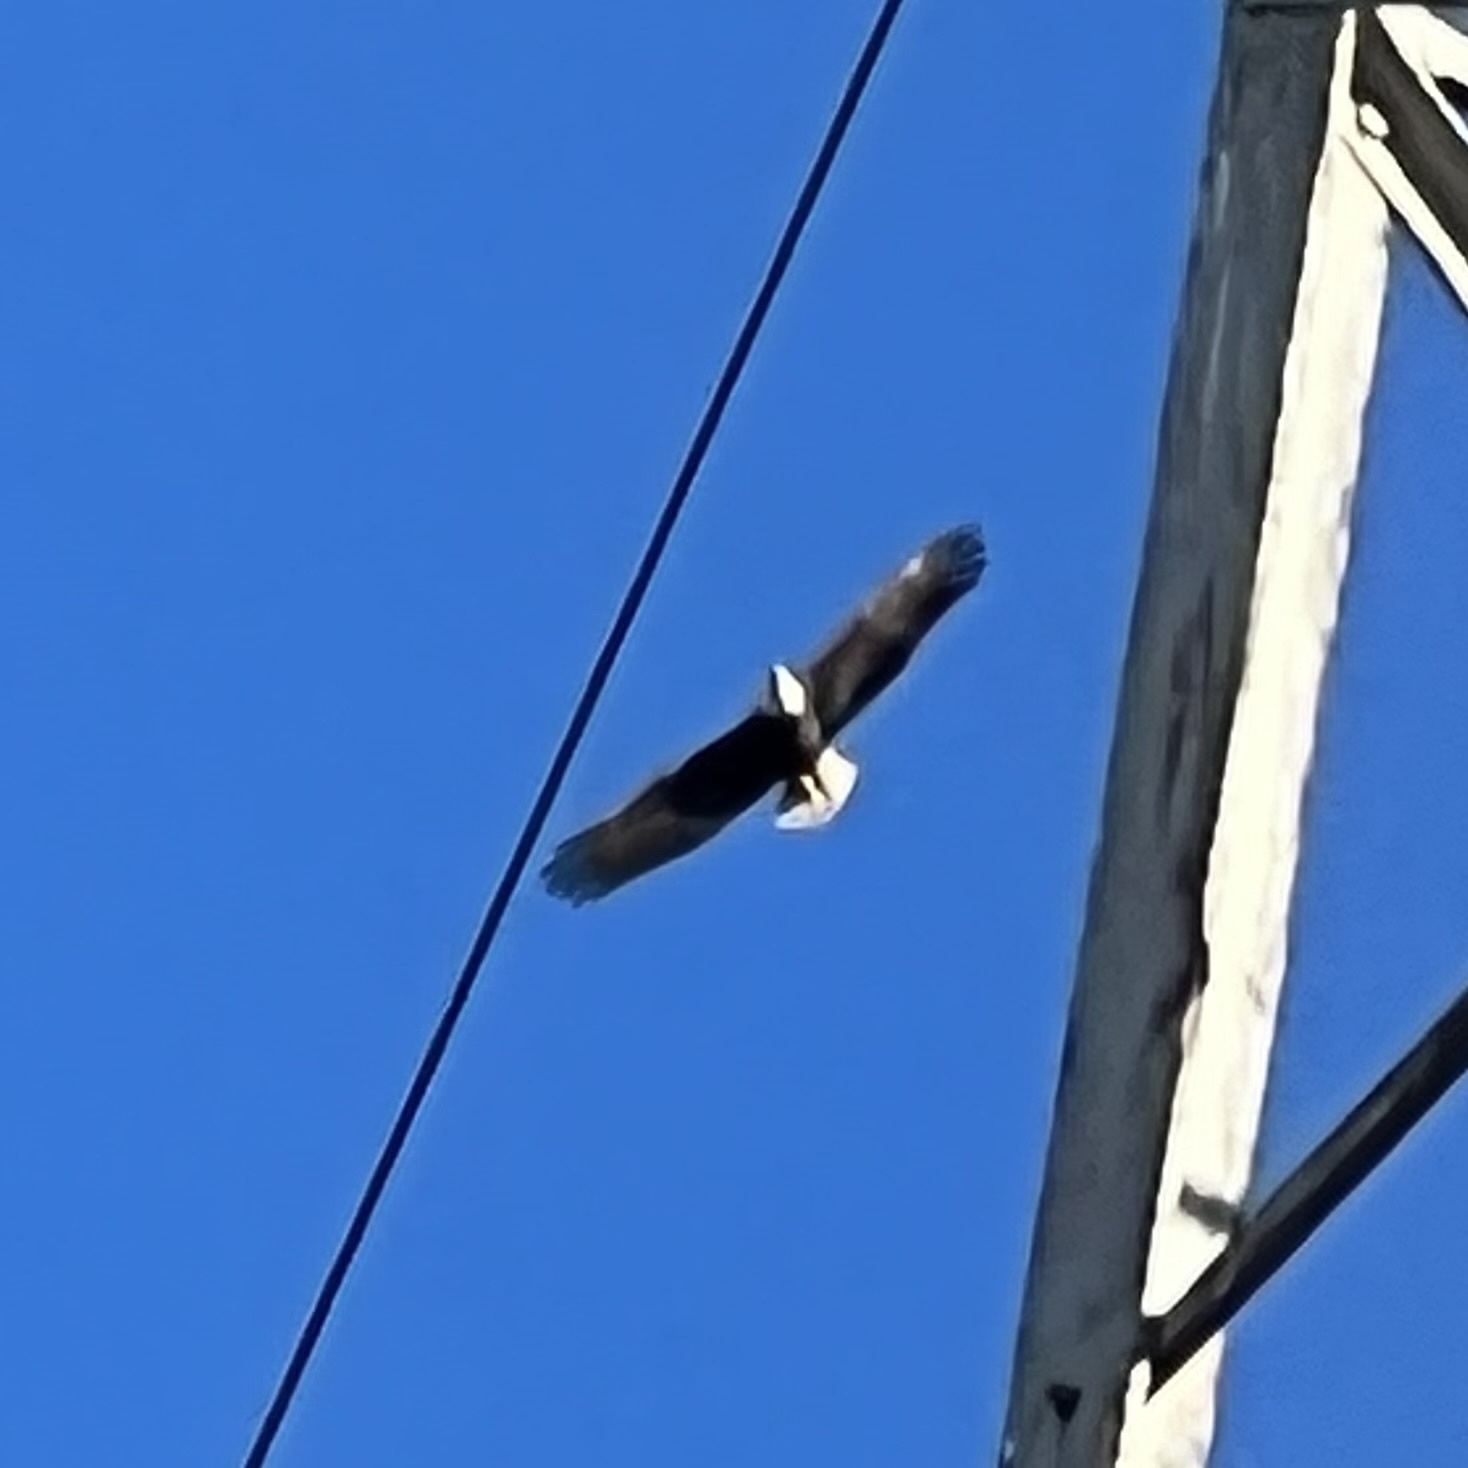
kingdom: Animalia
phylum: Chordata
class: Aves
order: Accipitriformes
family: Accipitridae
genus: Haliaeetus
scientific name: Haliaeetus leucocephalus
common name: Bald eagle
